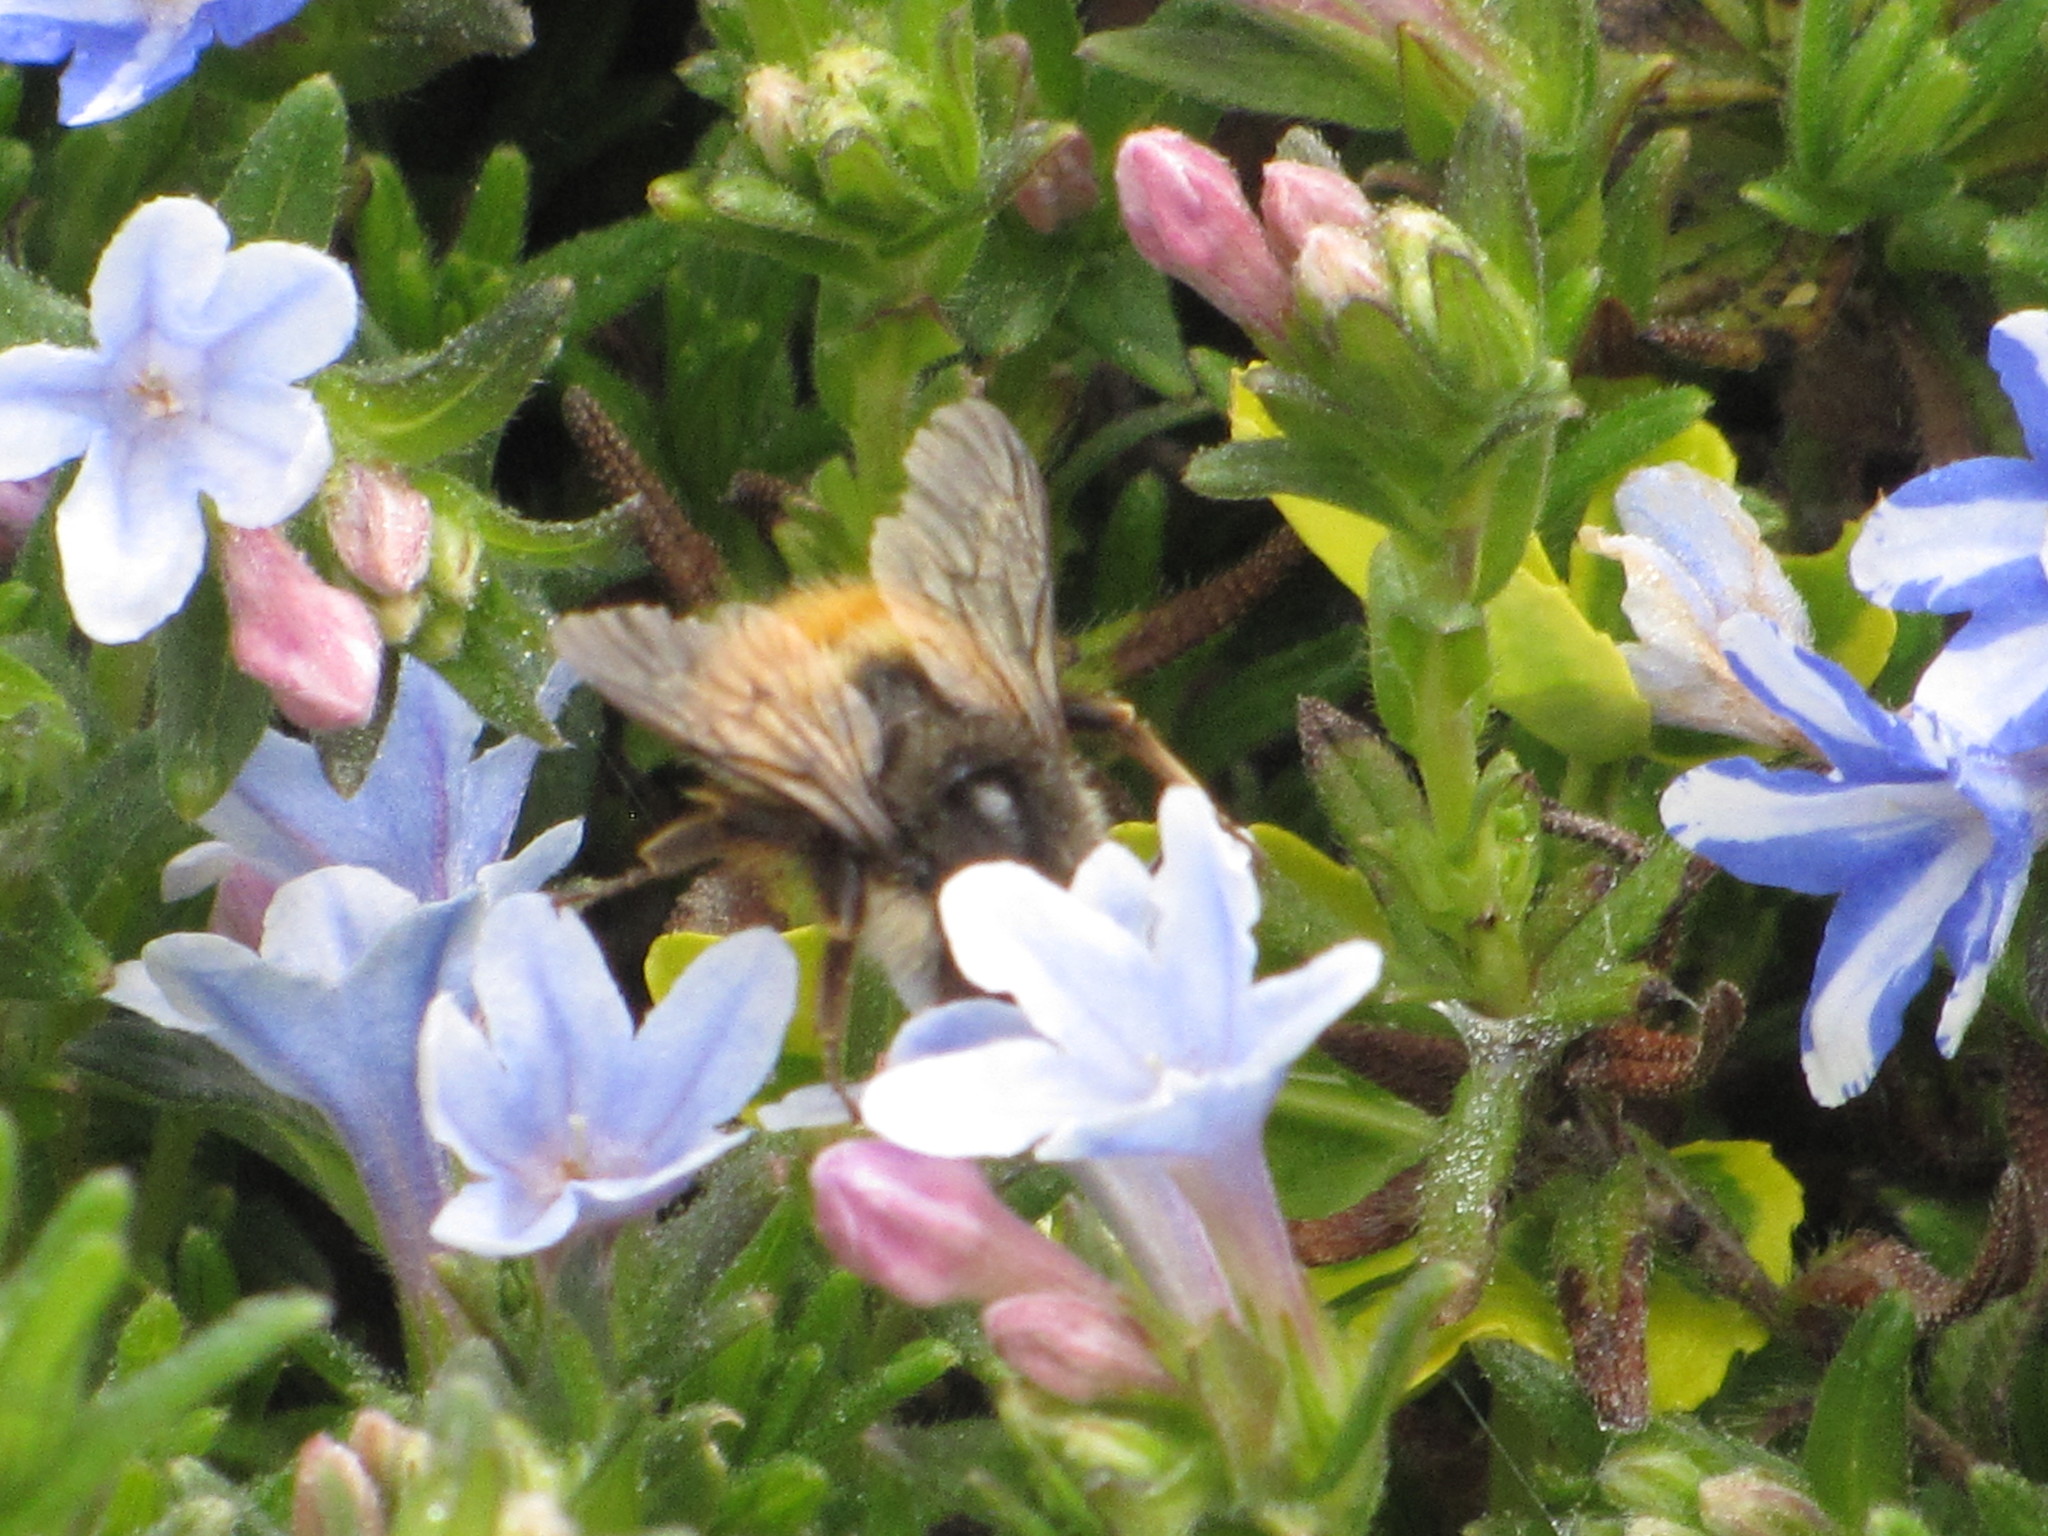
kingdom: Animalia
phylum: Arthropoda
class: Insecta
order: Hymenoptera
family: Apidae
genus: Bombus
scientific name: Bombus flavifrons
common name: Yellow head bumble bee
